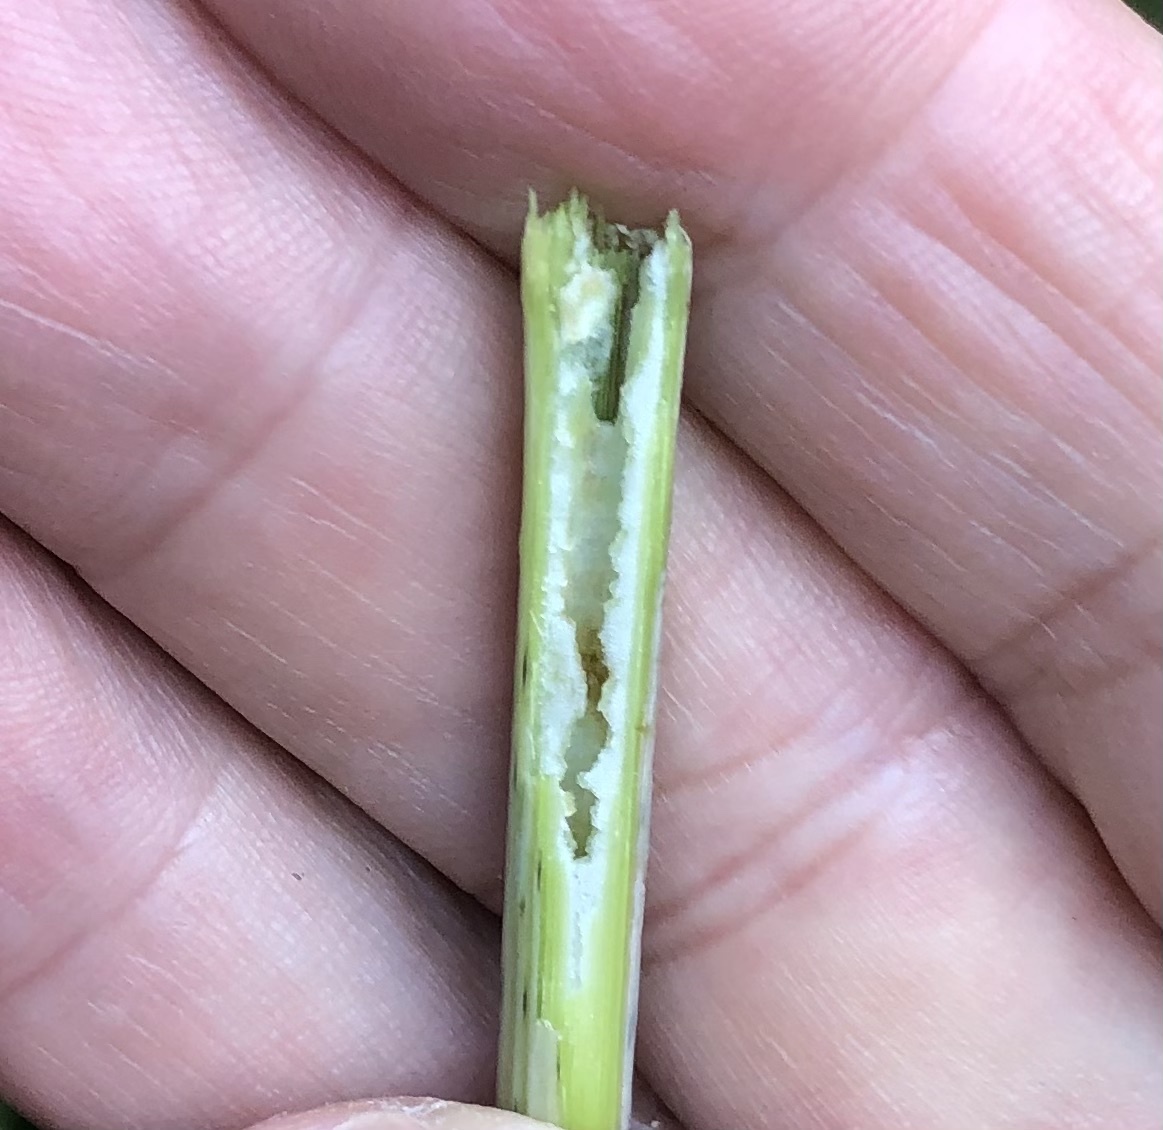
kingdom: Plantae
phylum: Tracheophyta
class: Magnoliopsida
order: Asterales
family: Asteraceae
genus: Eutrochium
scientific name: Eutrochium fistulosum
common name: Trumpetweed
